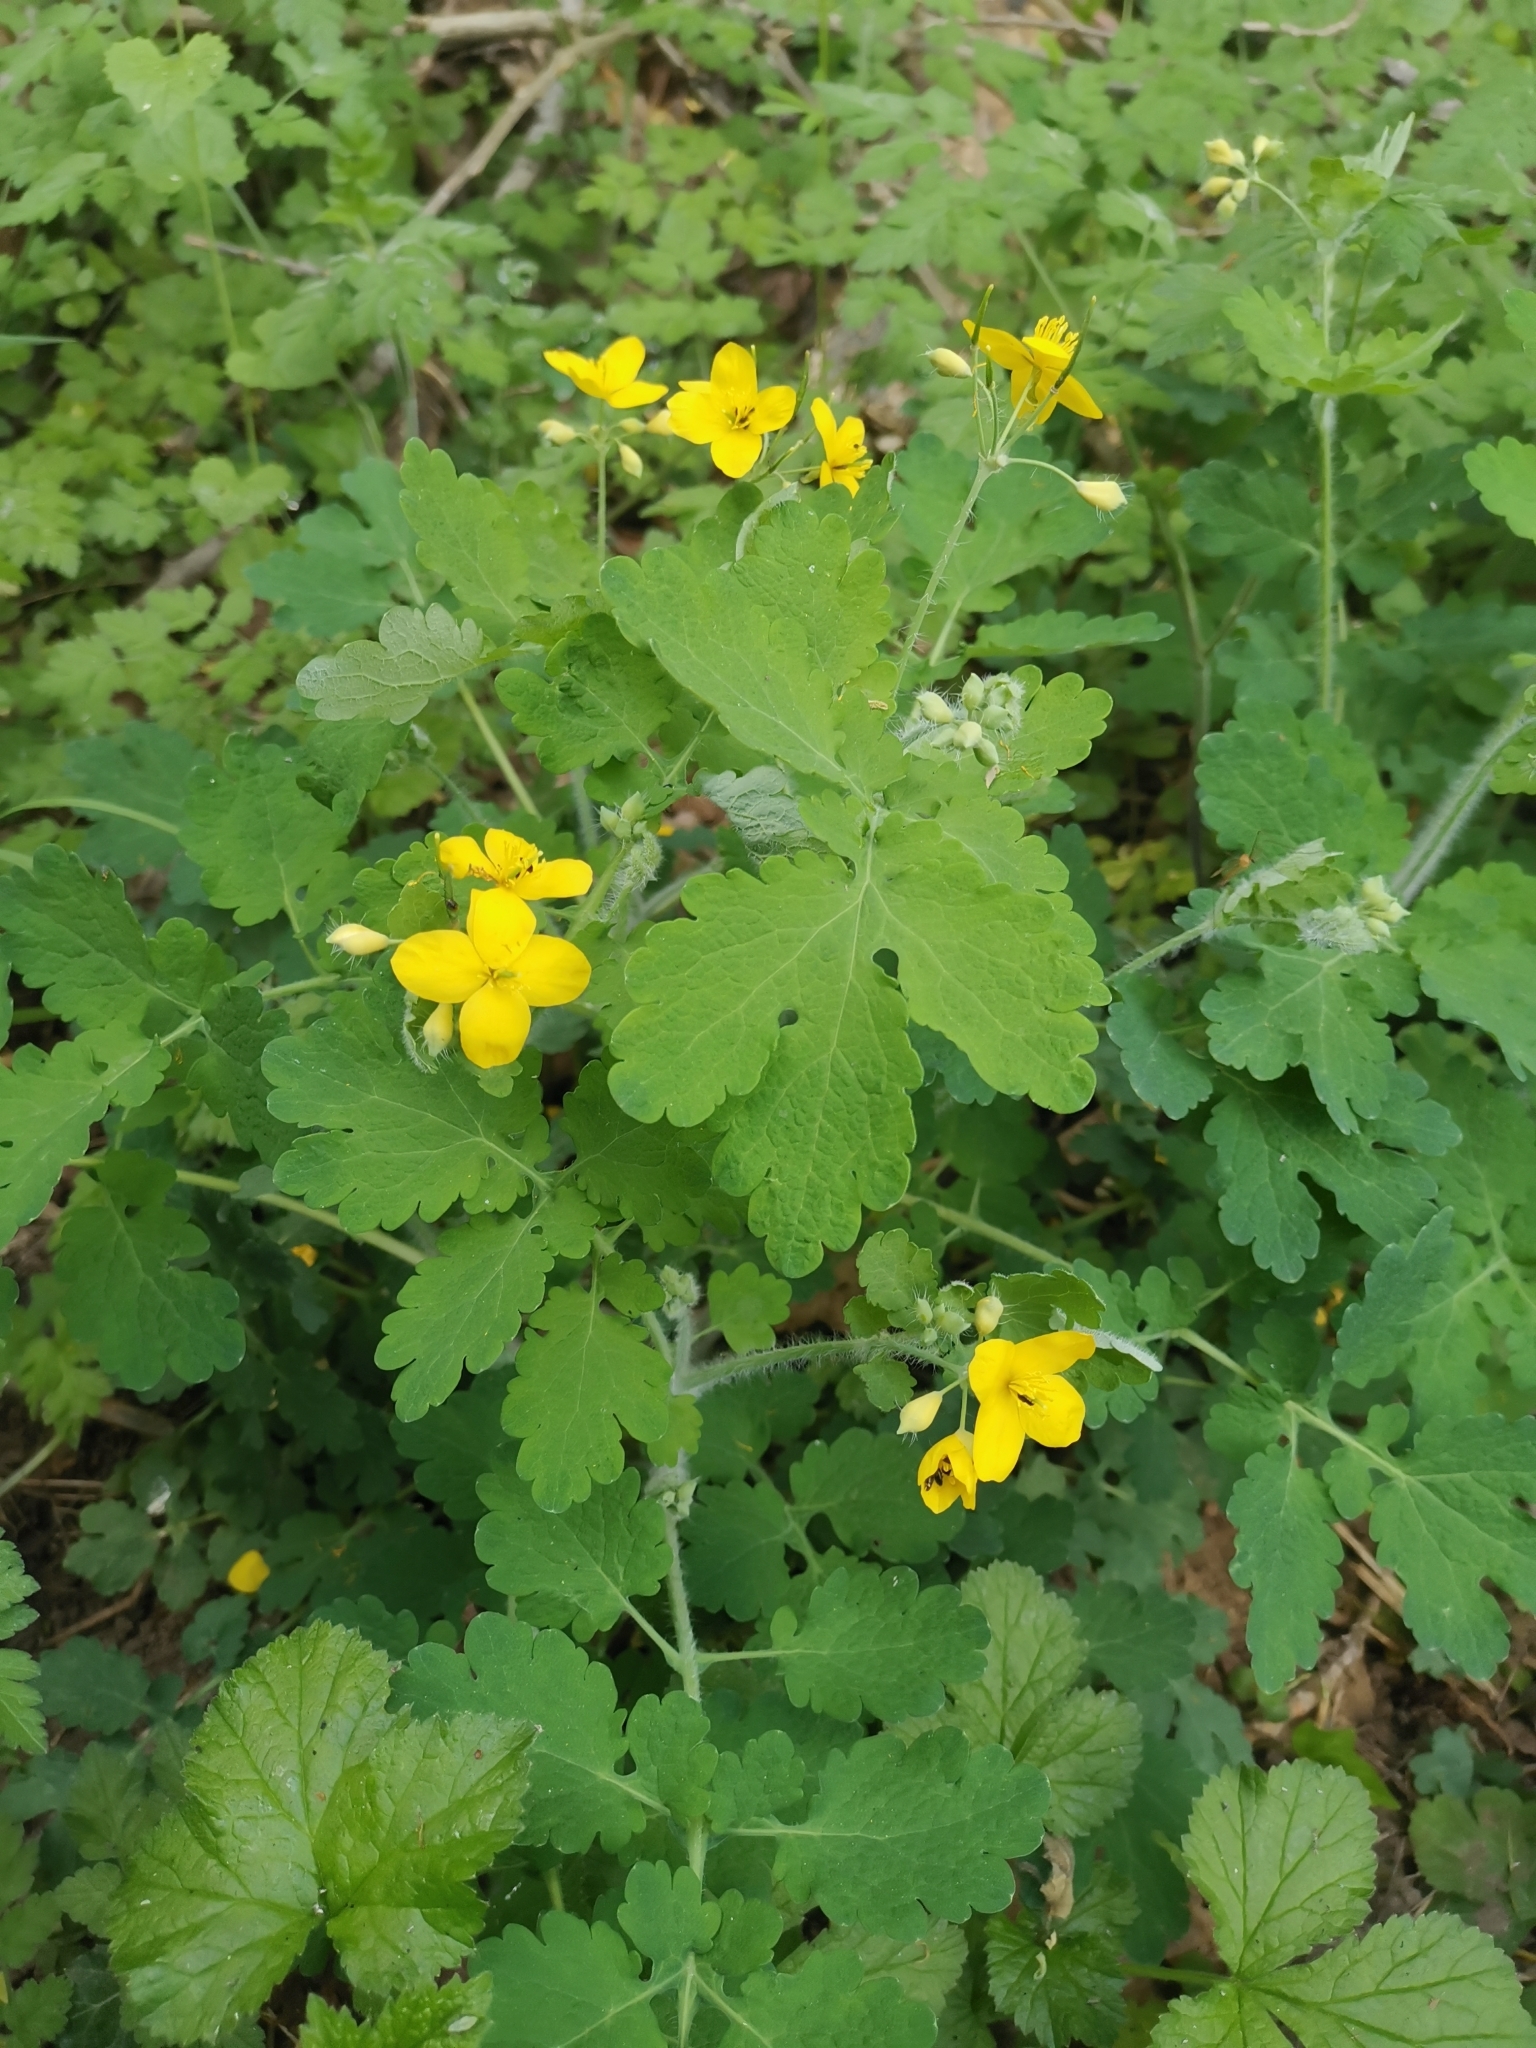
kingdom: Plantae
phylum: Tracheophyta
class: Magnoliopsida
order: Ranunculales
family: Papaveraceae
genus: Chelidonium
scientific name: Chelidonium majus
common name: Greater celandine
